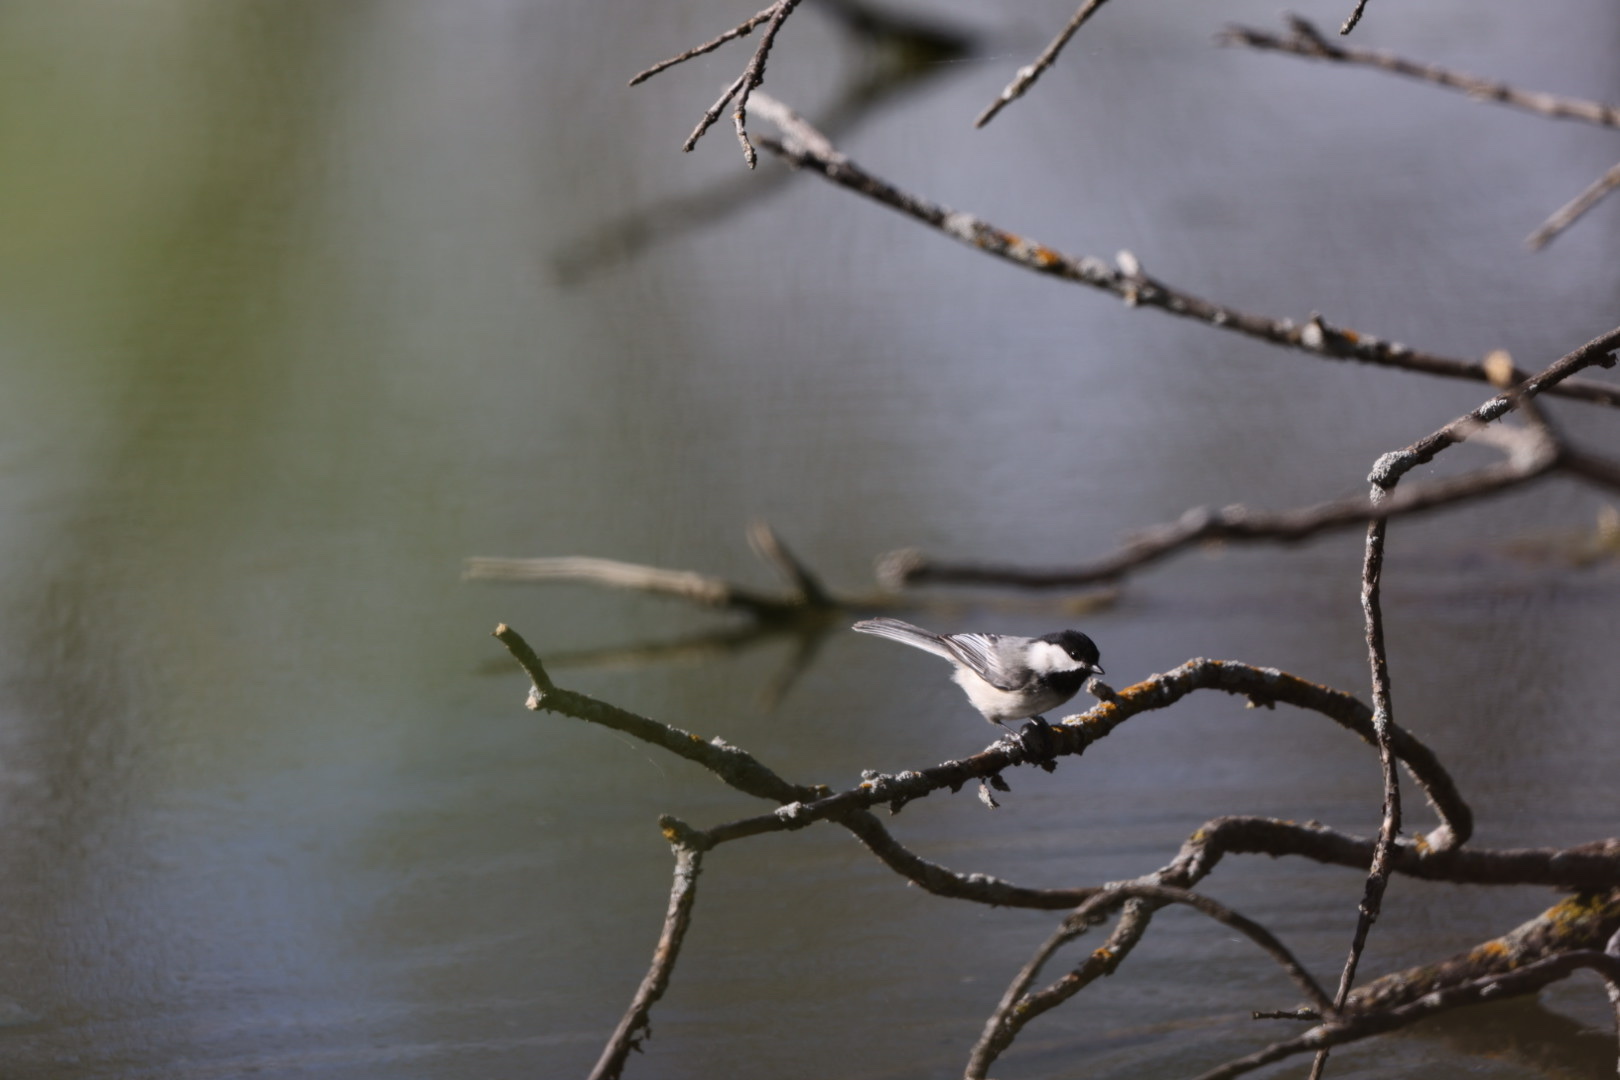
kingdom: Animalia
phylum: Chordata
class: Aves
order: Passeriformes
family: Paridae
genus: Poecile
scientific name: Poecile atricapillus
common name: Black-capped chickadee
